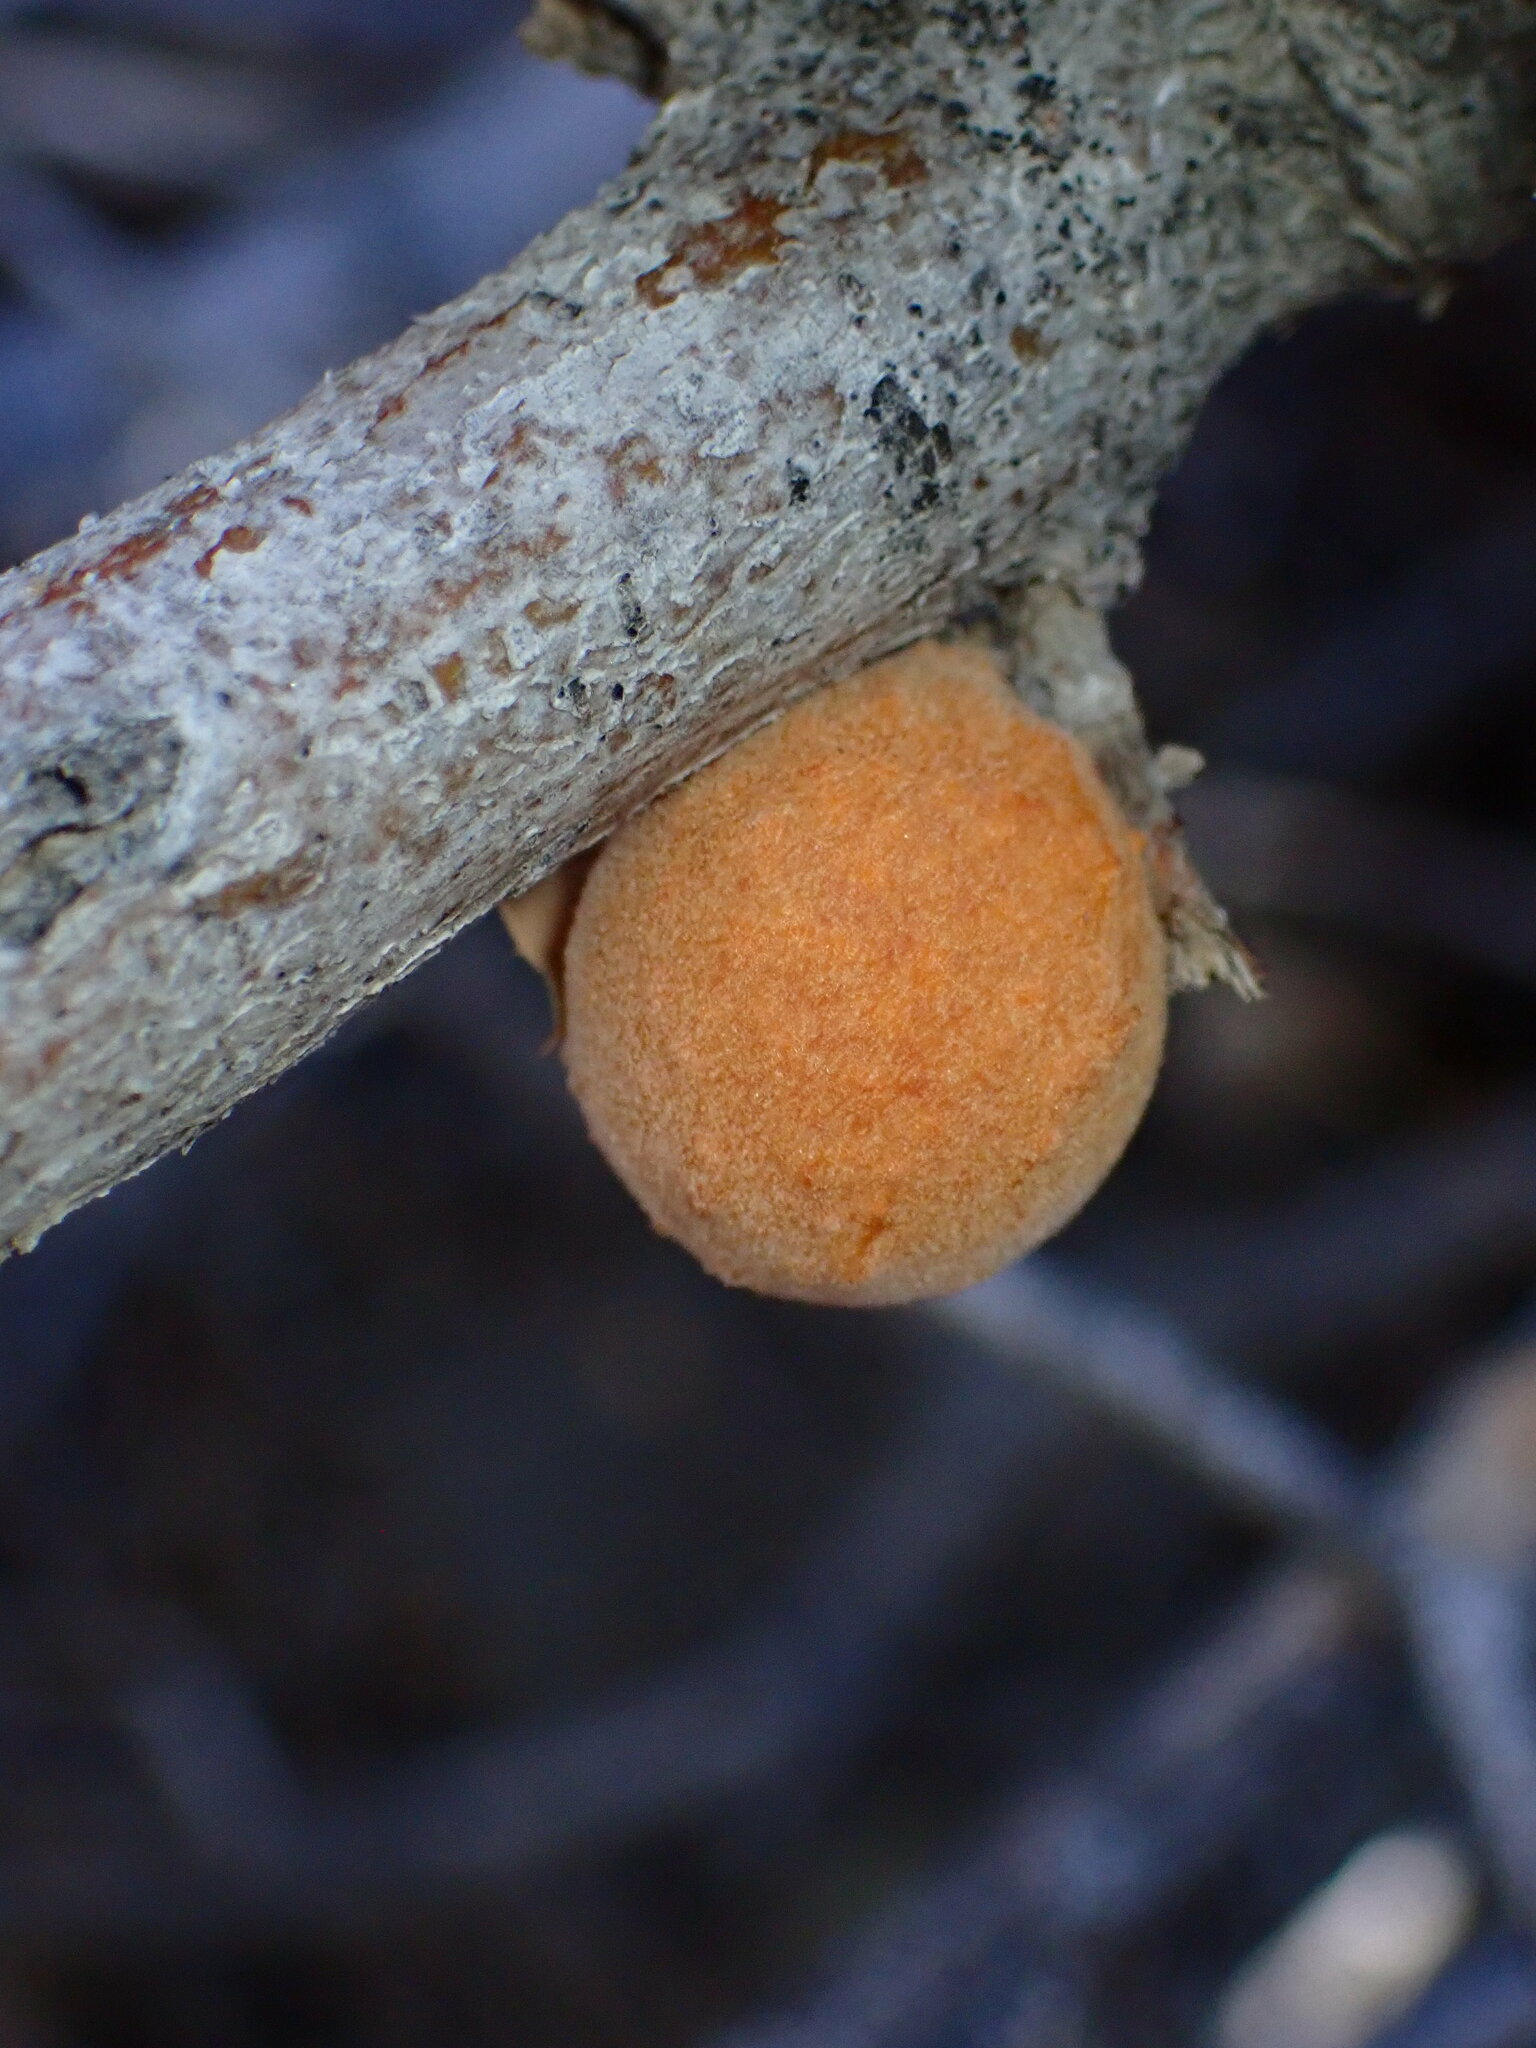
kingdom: Animalia
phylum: Arthropoda
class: Insecta
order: Hymenoptera
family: Cynipidae
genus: Burnettweldia
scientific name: Burnettweldia
